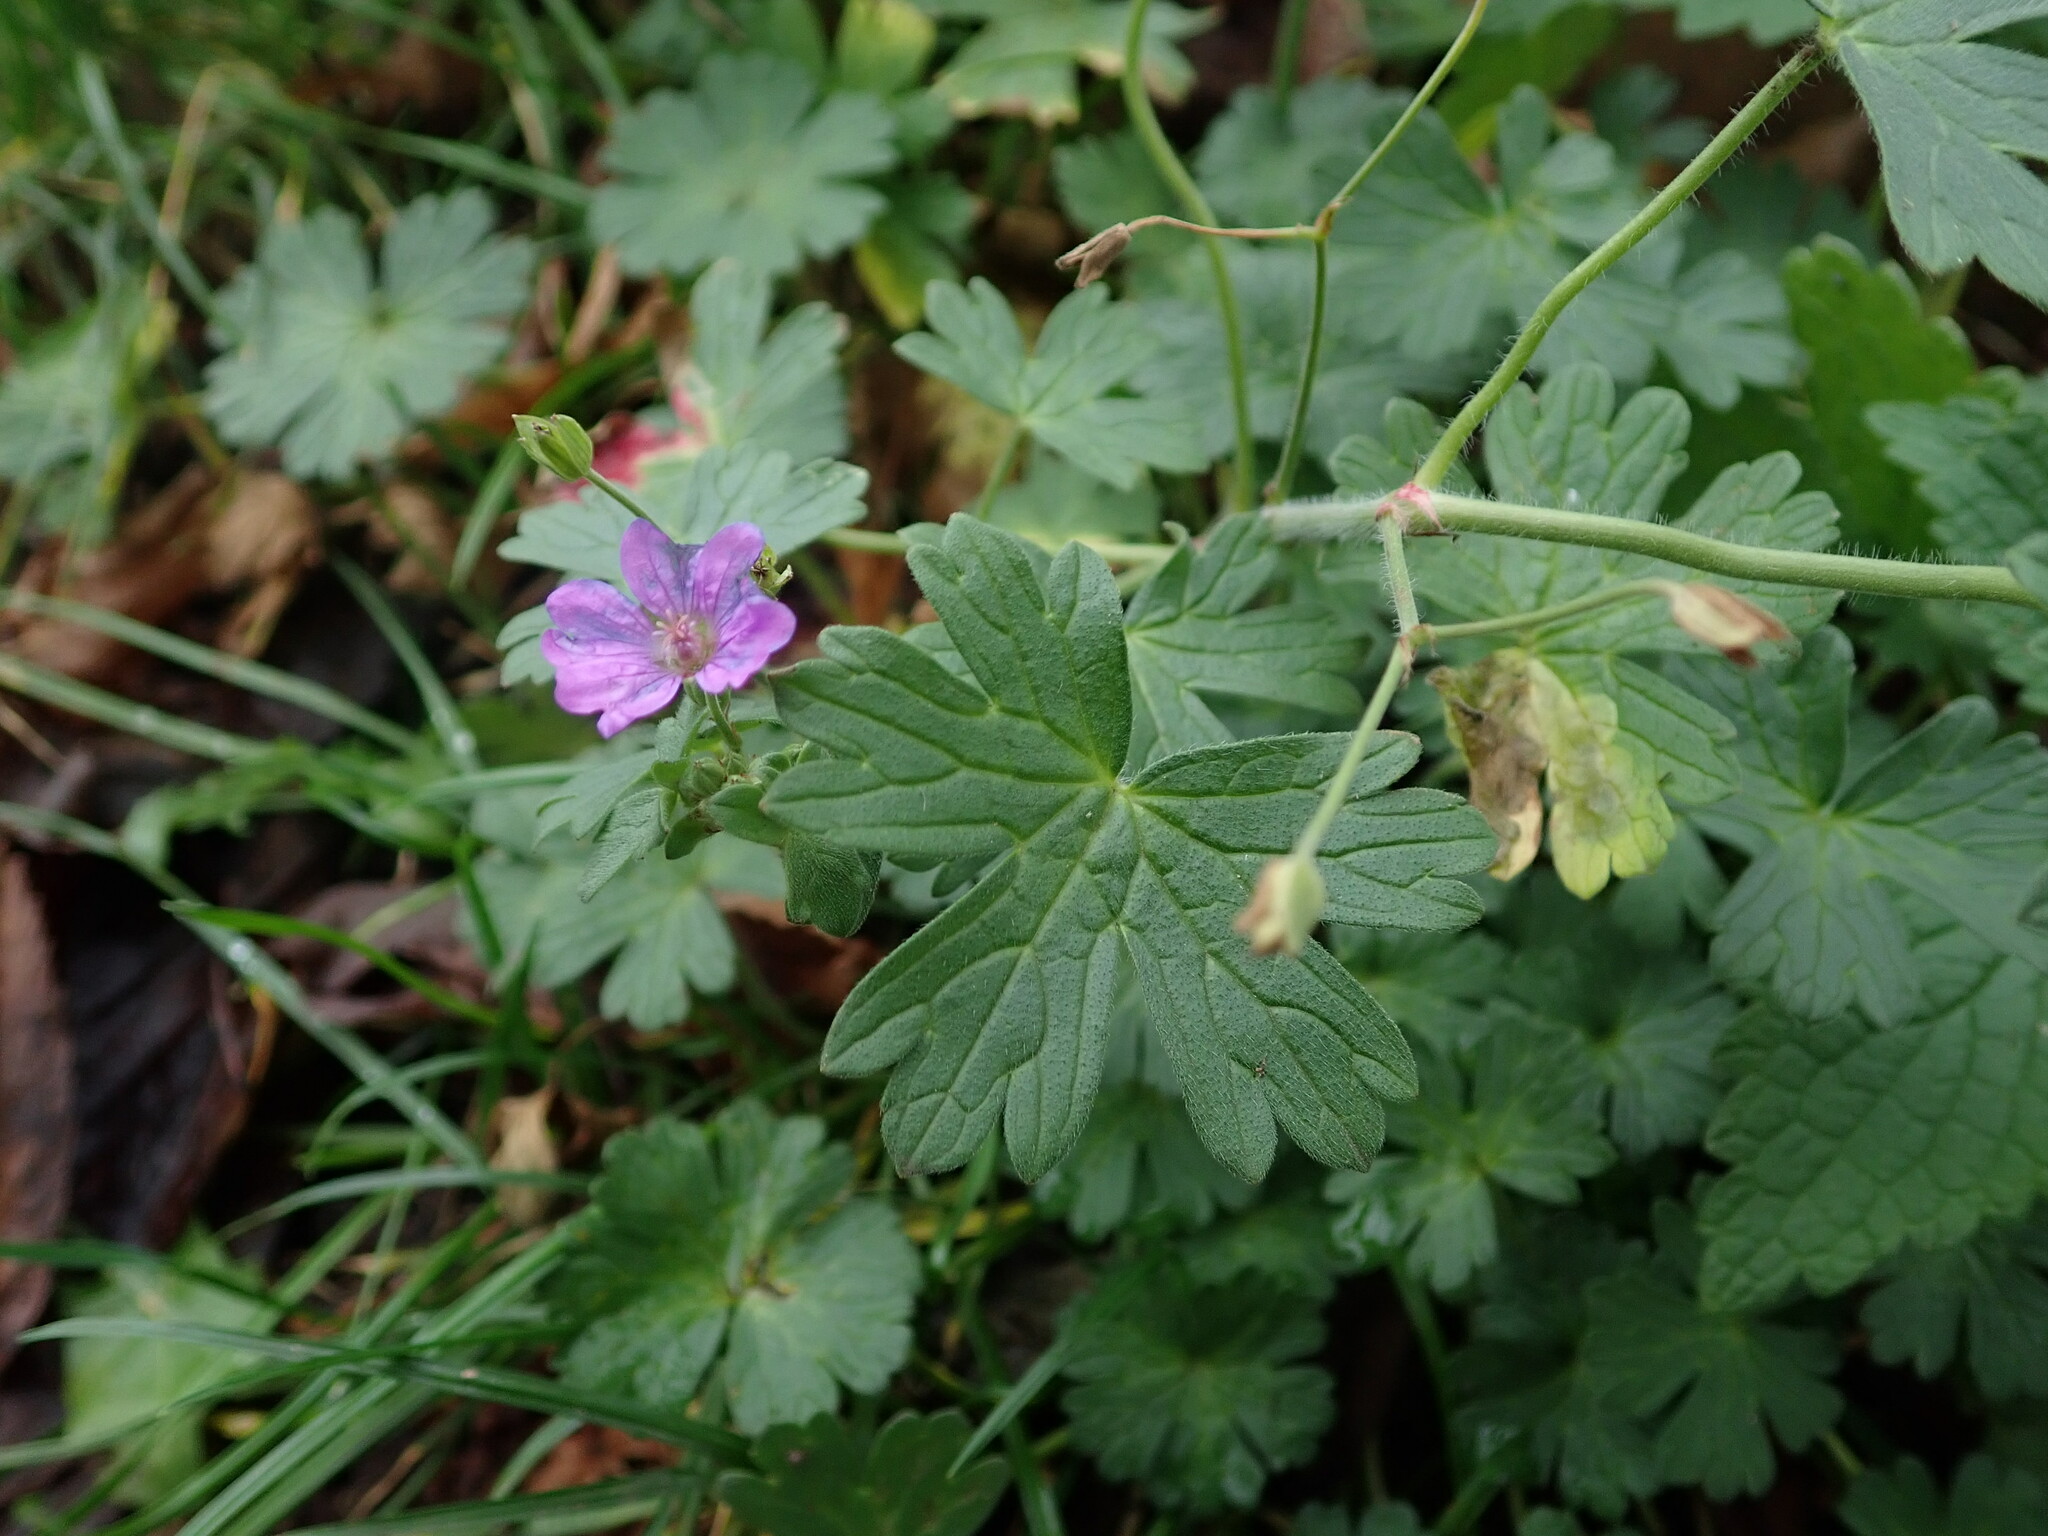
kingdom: Plantae
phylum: Tracheophyta
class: Magnoliopsida
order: Geraniales
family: Geraniaceae
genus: Geranium
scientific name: Geranium pyrenaicum
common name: Hedgerow crane's-bill
